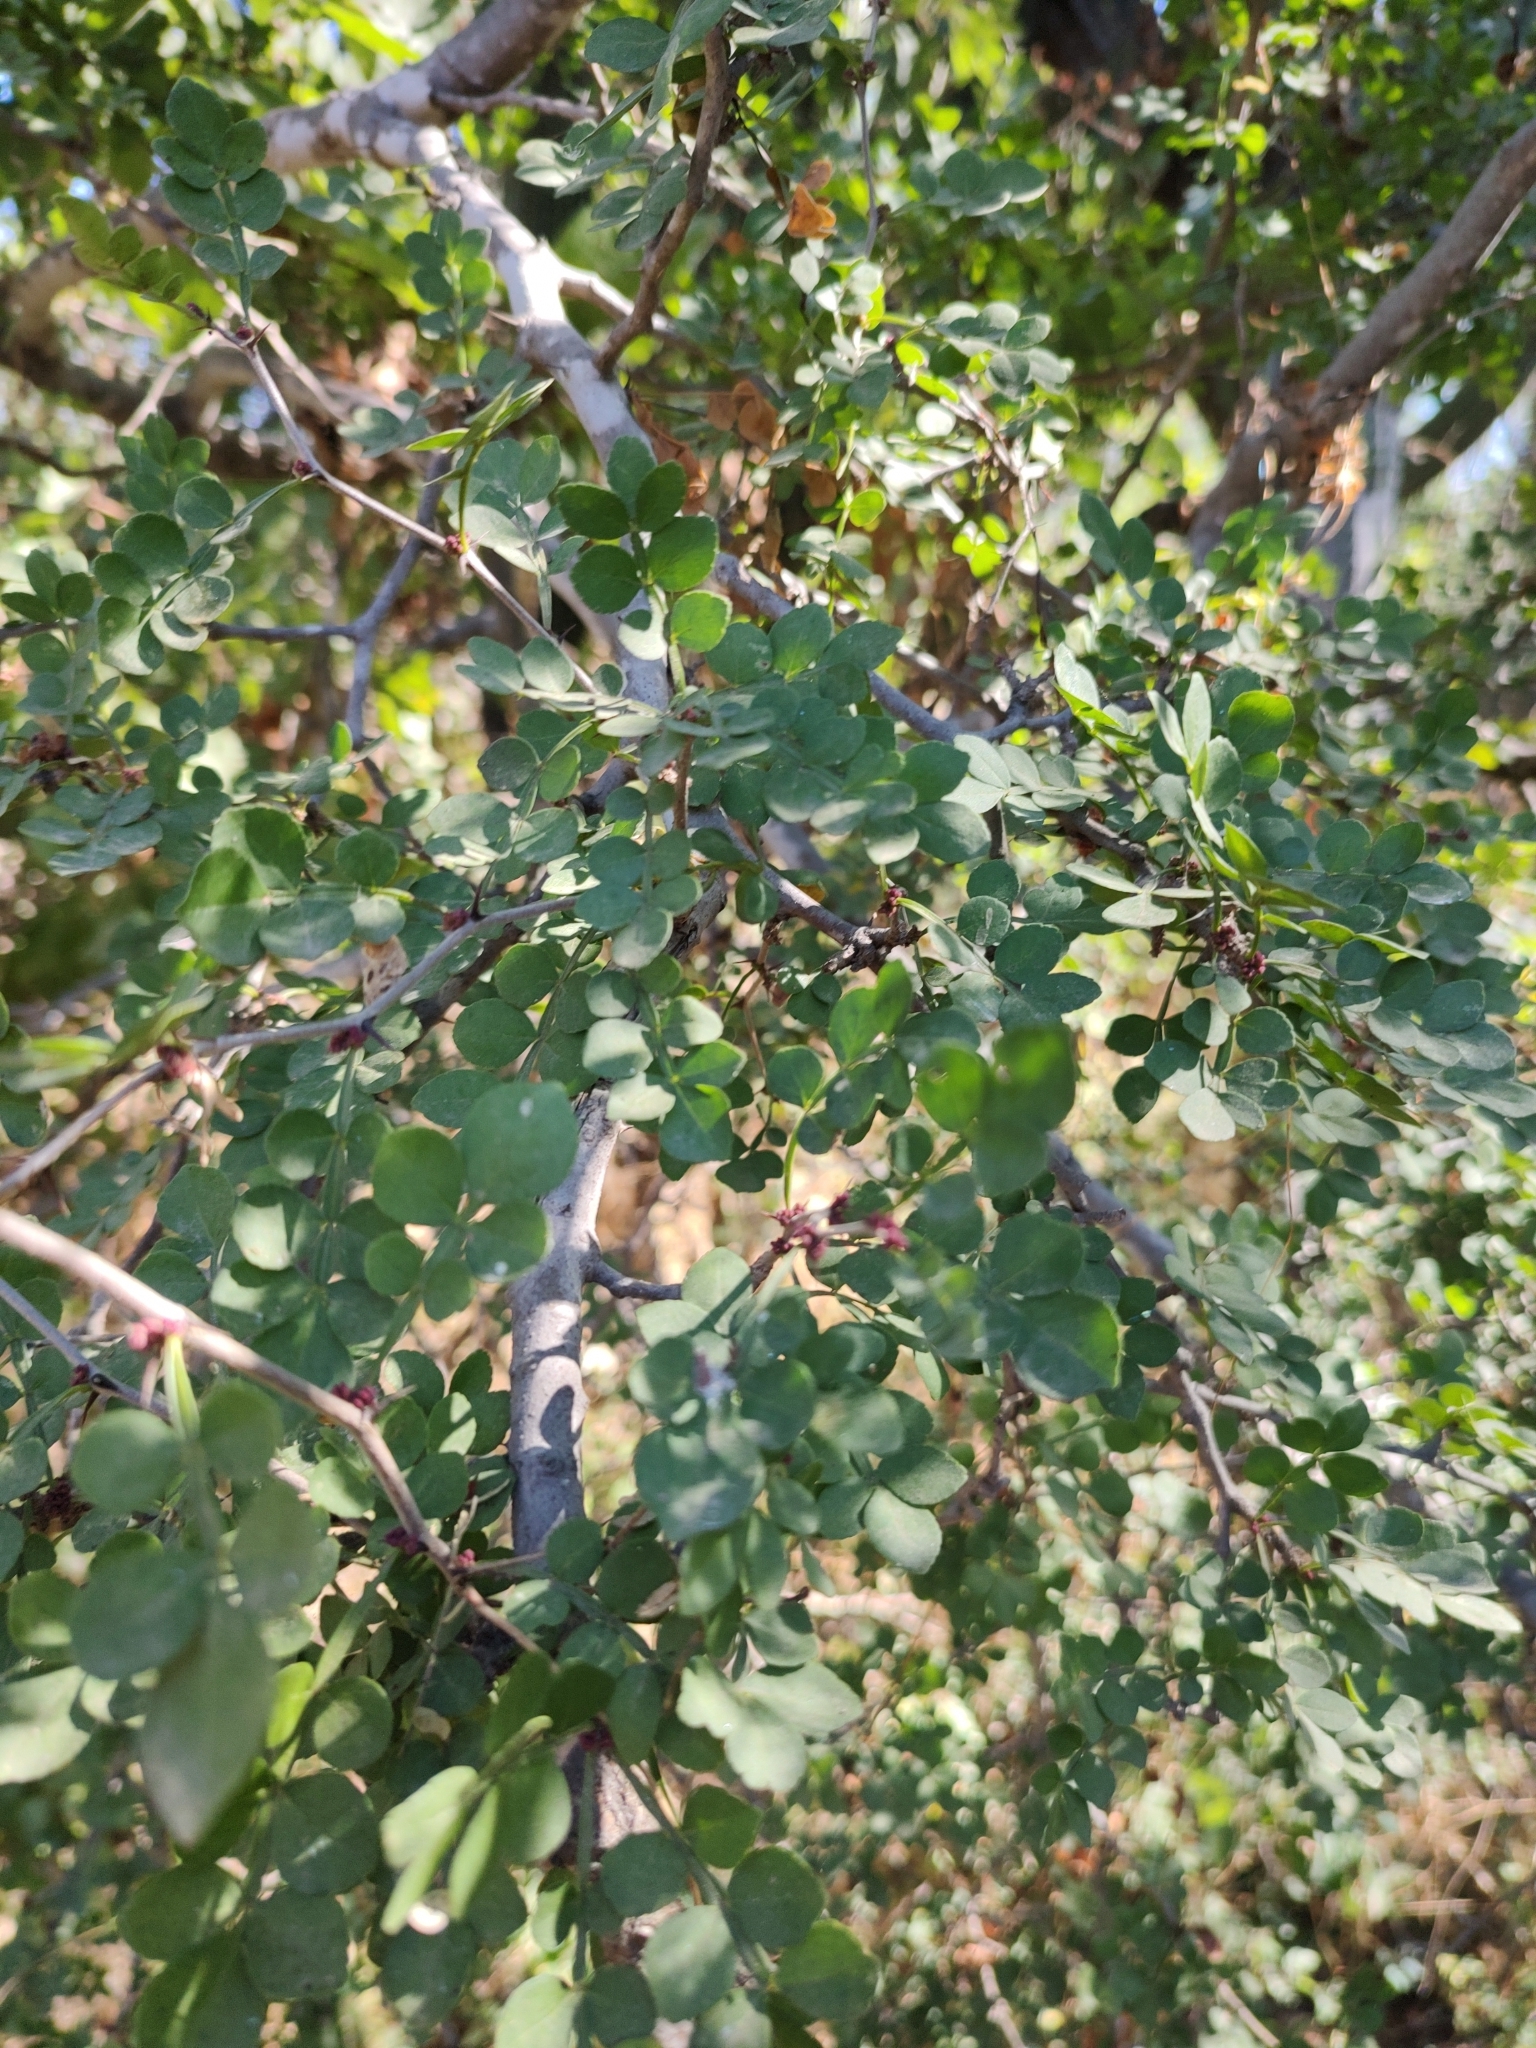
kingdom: Plantae
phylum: Tracheophyta
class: Magnoliopsida
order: Sapindales
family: Rutaceae
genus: Zanthoxylum
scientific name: Zanthoxylum fagara
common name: Lime prickly-ash
